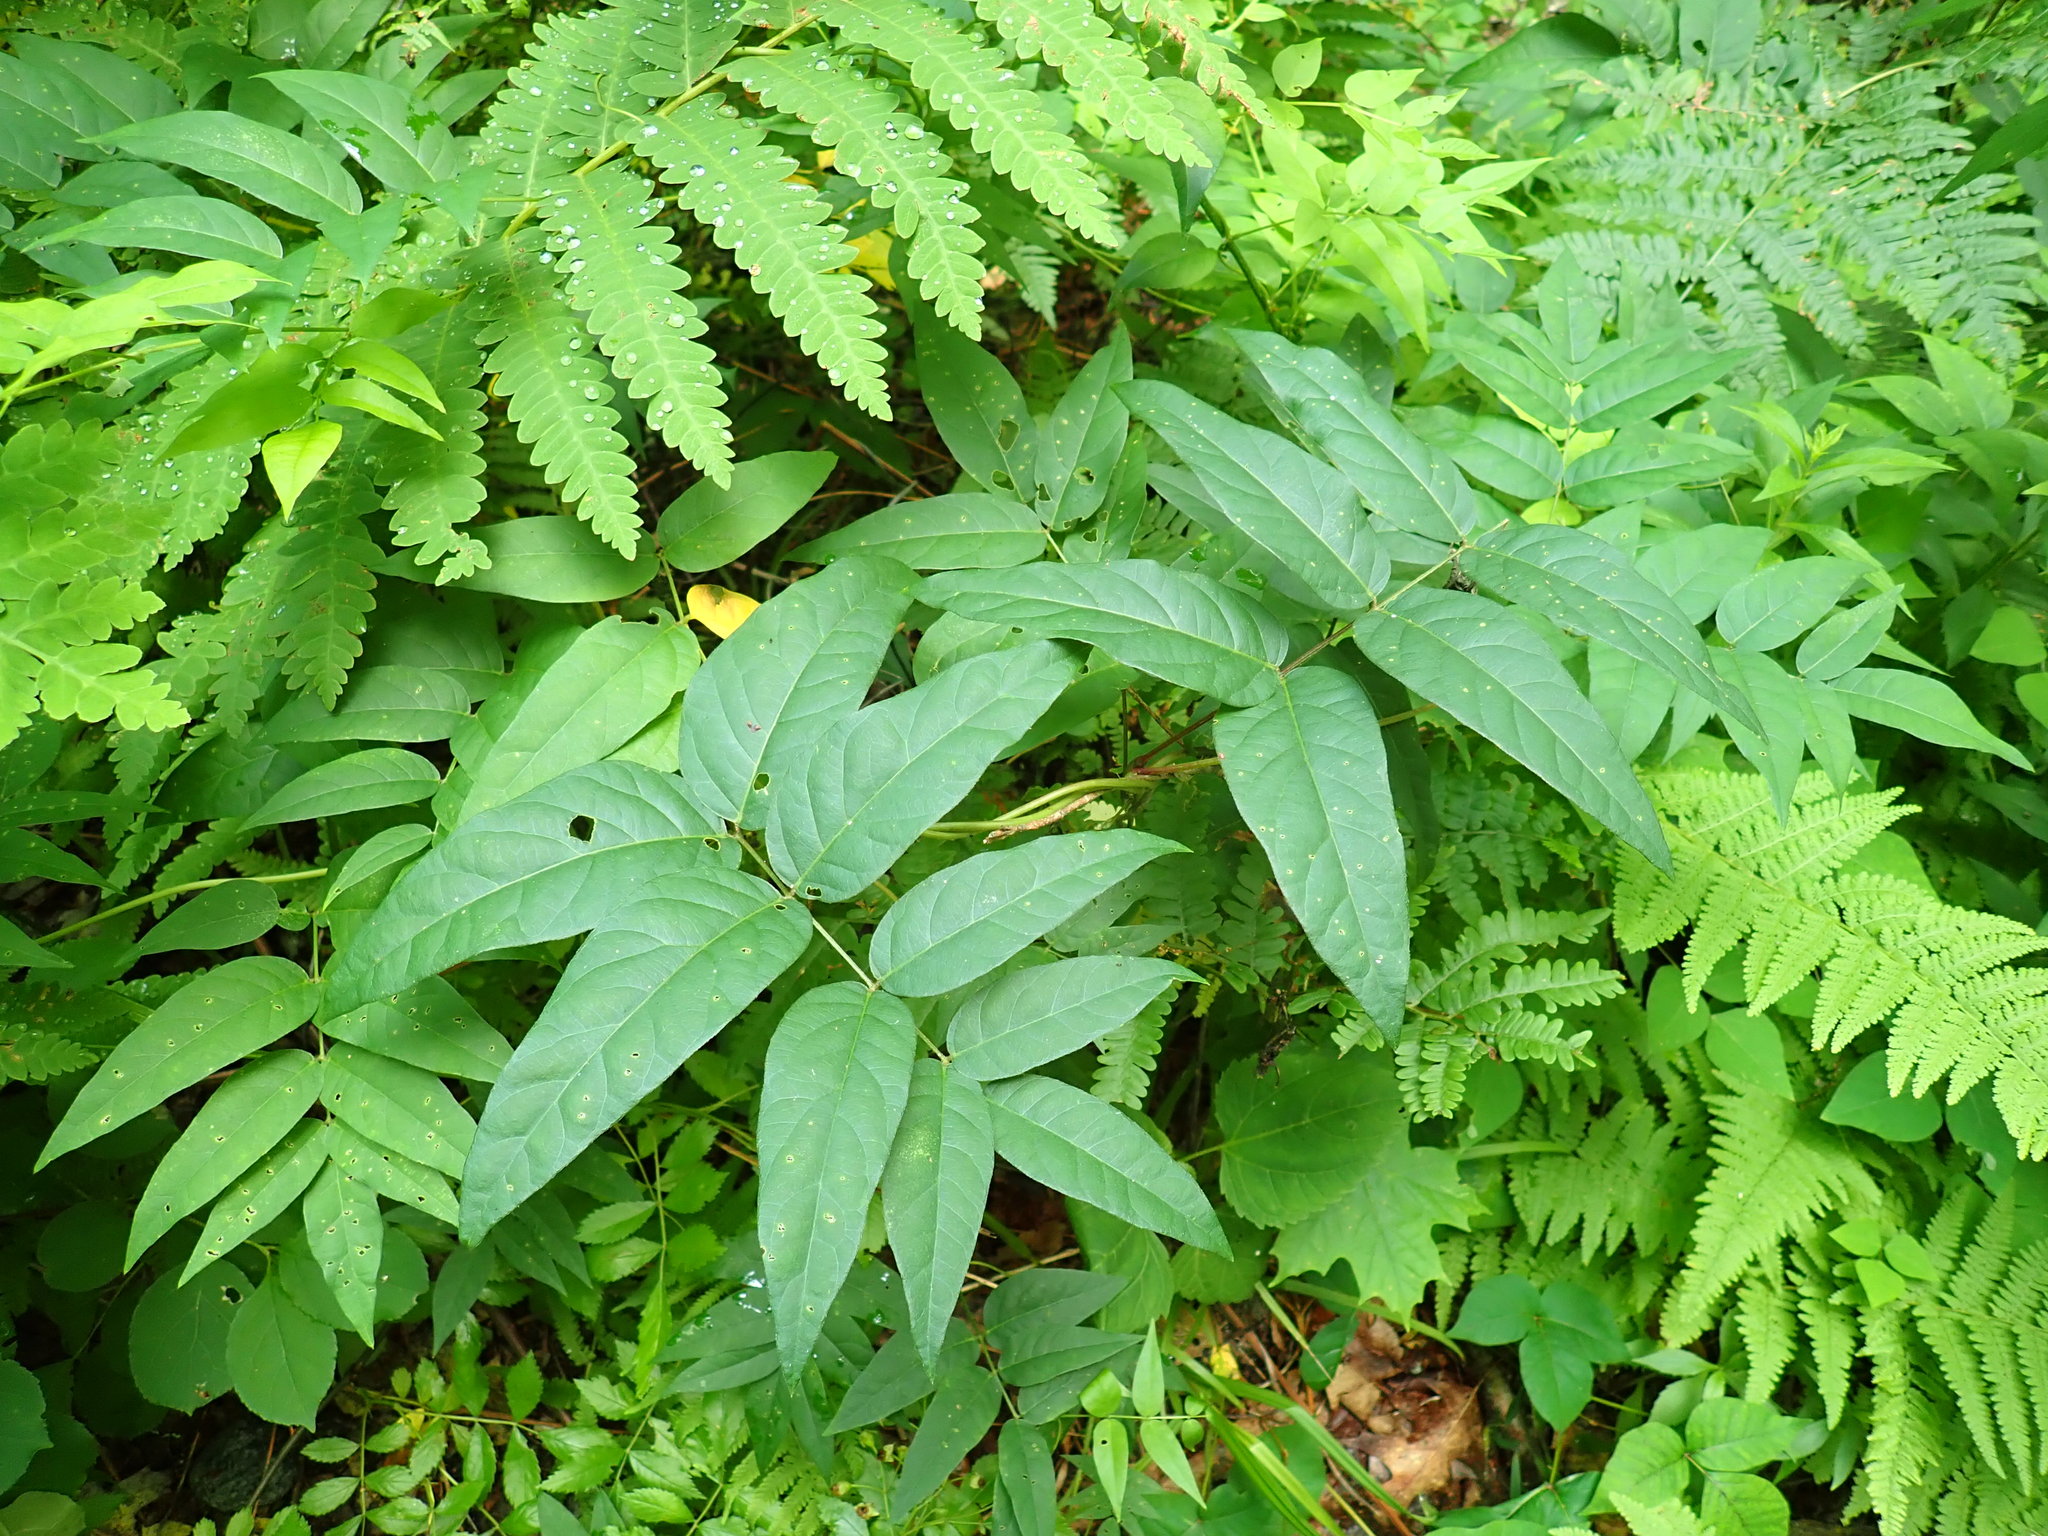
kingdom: Plantae
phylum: Tracheophyta
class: Magnoliopsida
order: Fabales
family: Fabaceae
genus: Apios
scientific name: Apios americana
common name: American potato-bean
